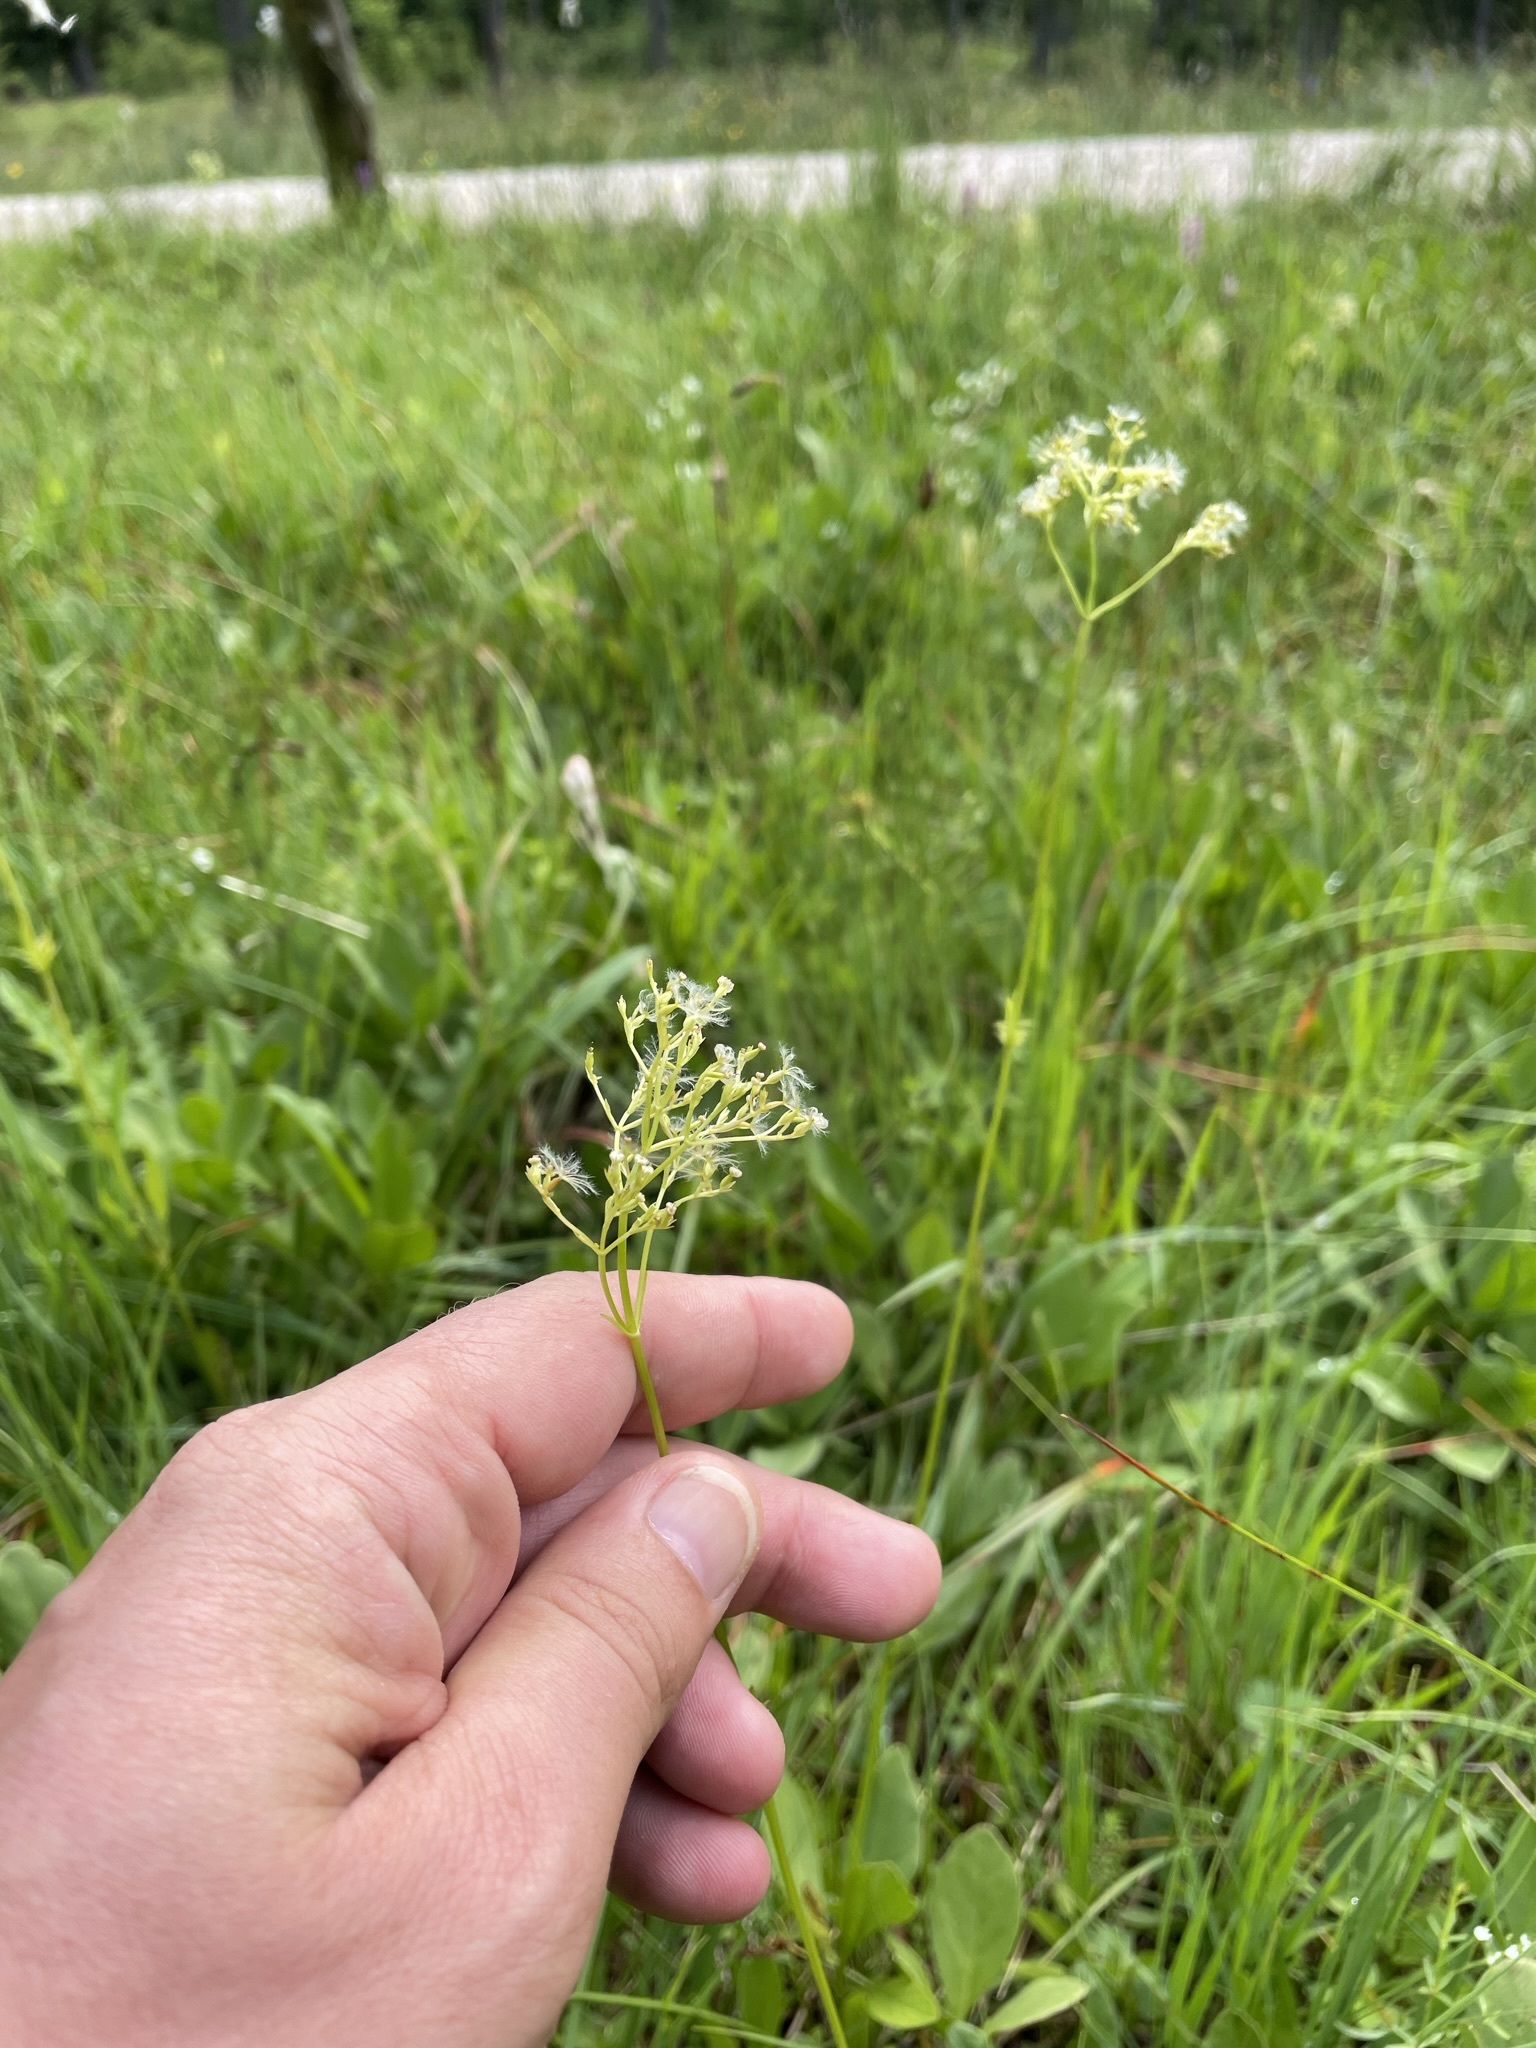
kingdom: Plantae
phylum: Tracheophyta
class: Magnoliopsida
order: Dipsacales
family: Caprifoliaceae
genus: Valeriana
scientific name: Valeriana dioica
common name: Marsh valerian
